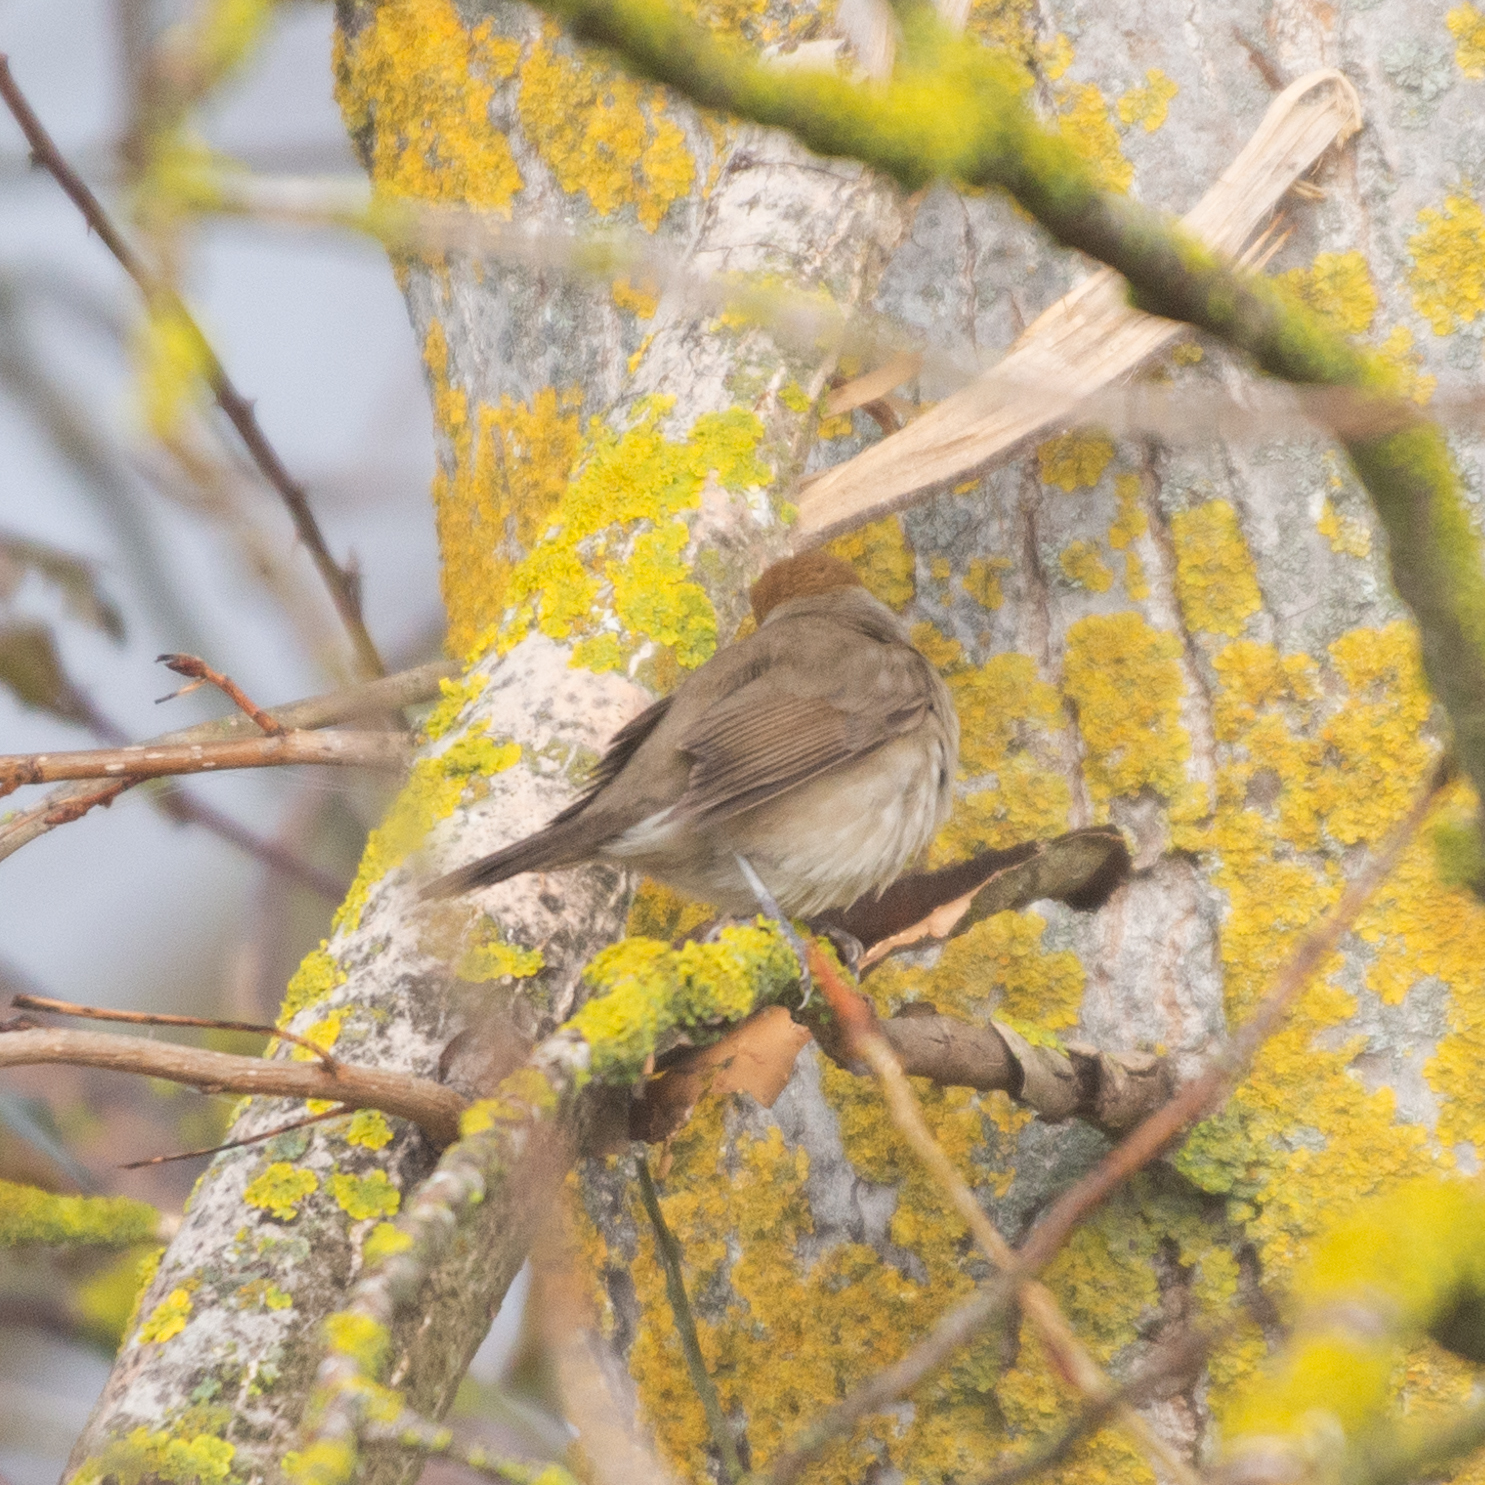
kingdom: Animalia
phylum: Chordata
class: Aves
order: Passeriformes
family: Sylviidae
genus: Sylvia
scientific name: Sylvia atricapilla
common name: Eurasian blackcap
